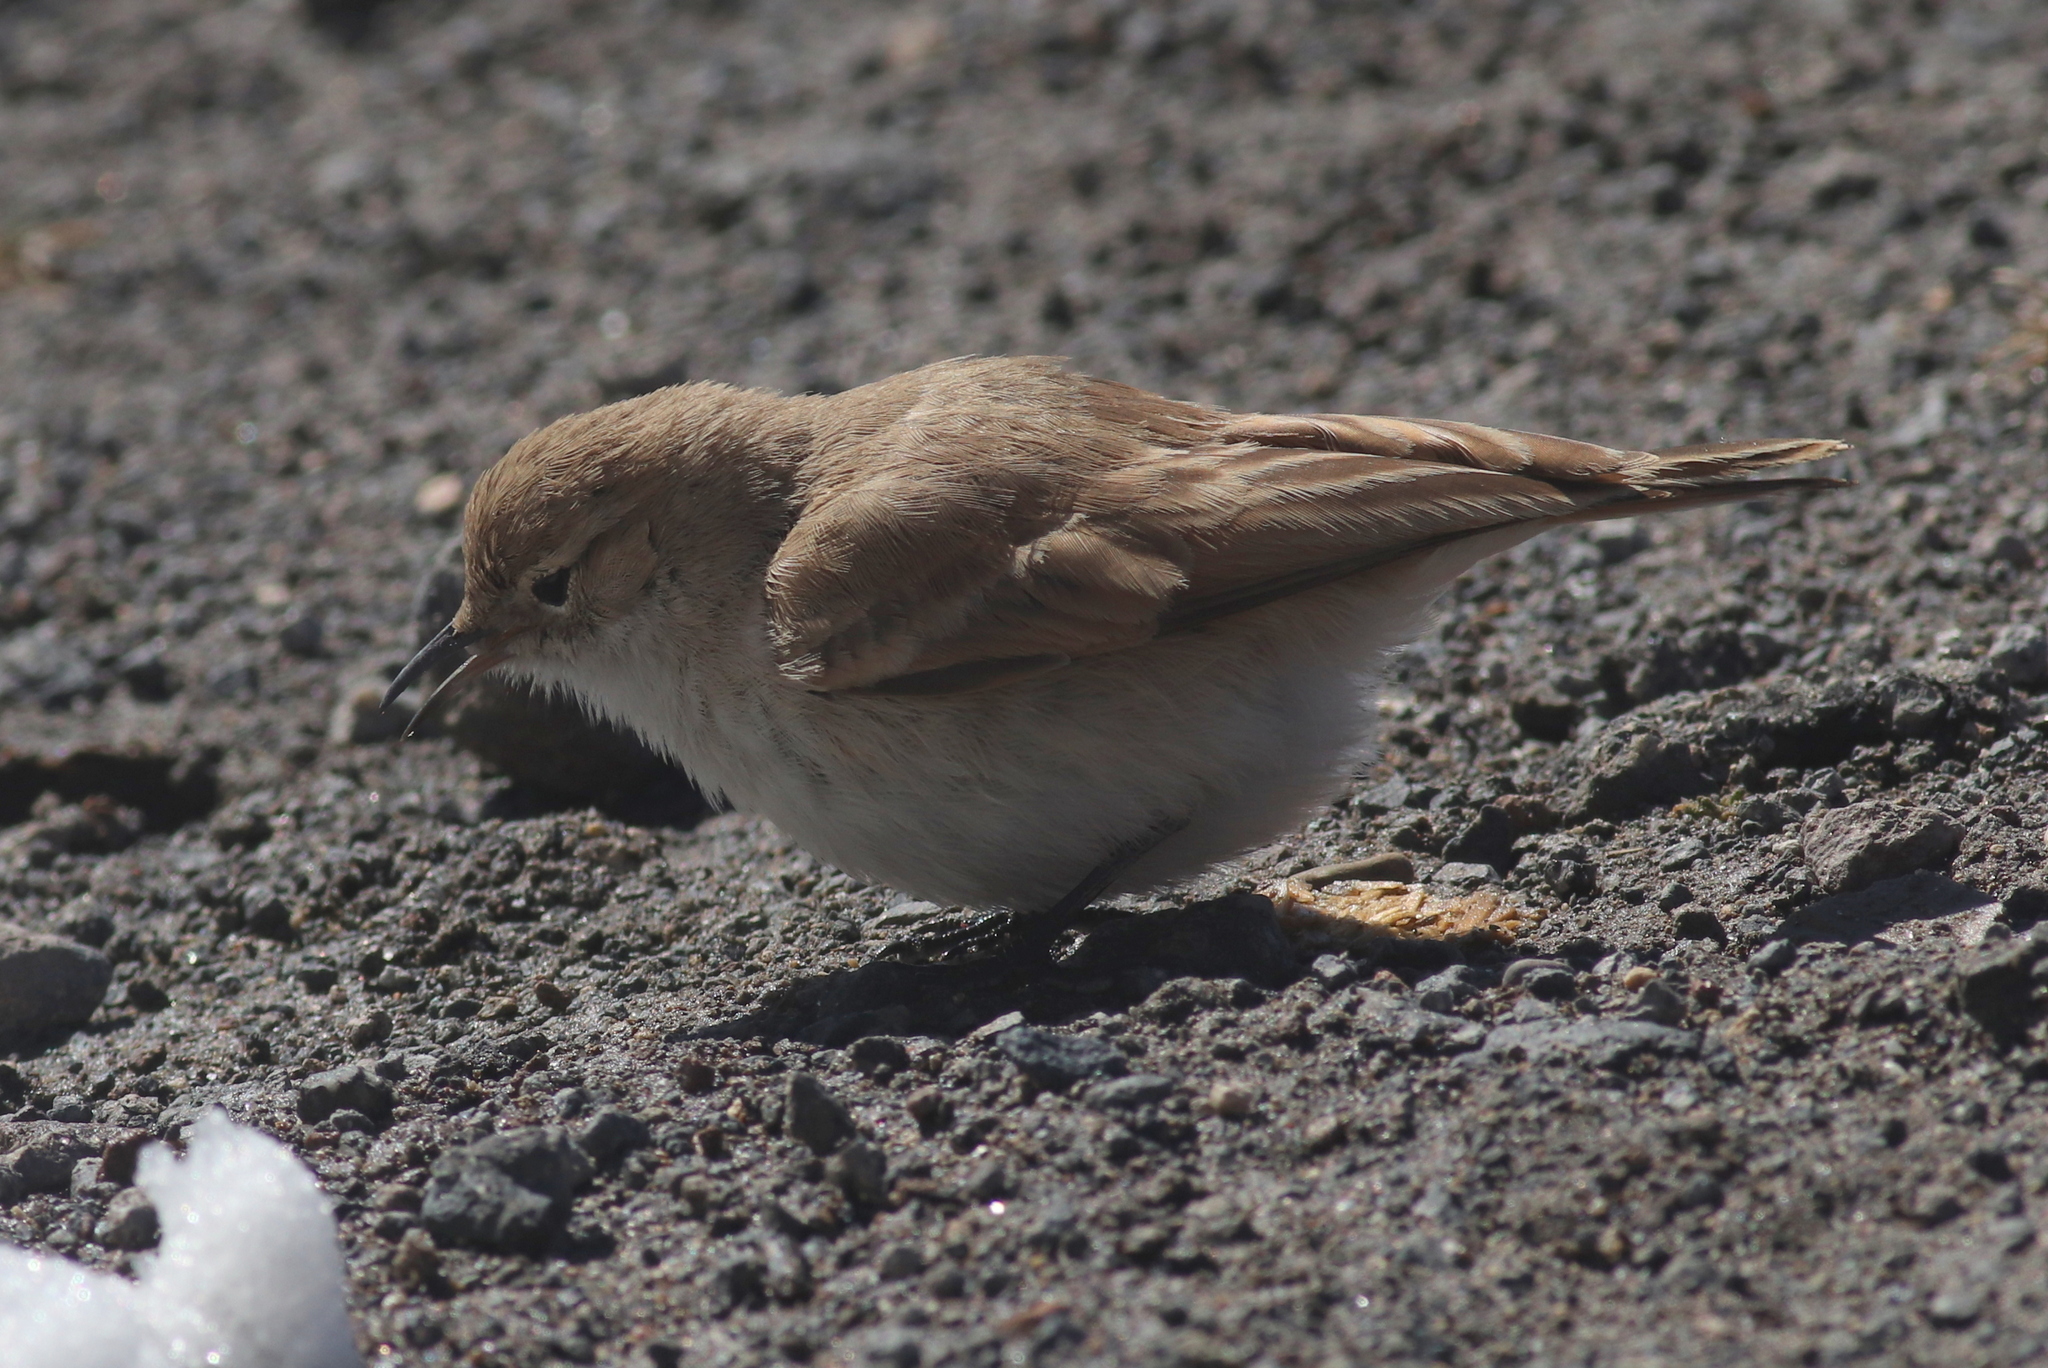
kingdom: Animalia
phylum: Chordata
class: Aves
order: Passeriformes
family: Furnariidae
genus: Geositta
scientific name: Geositta punensis
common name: Puna miner
